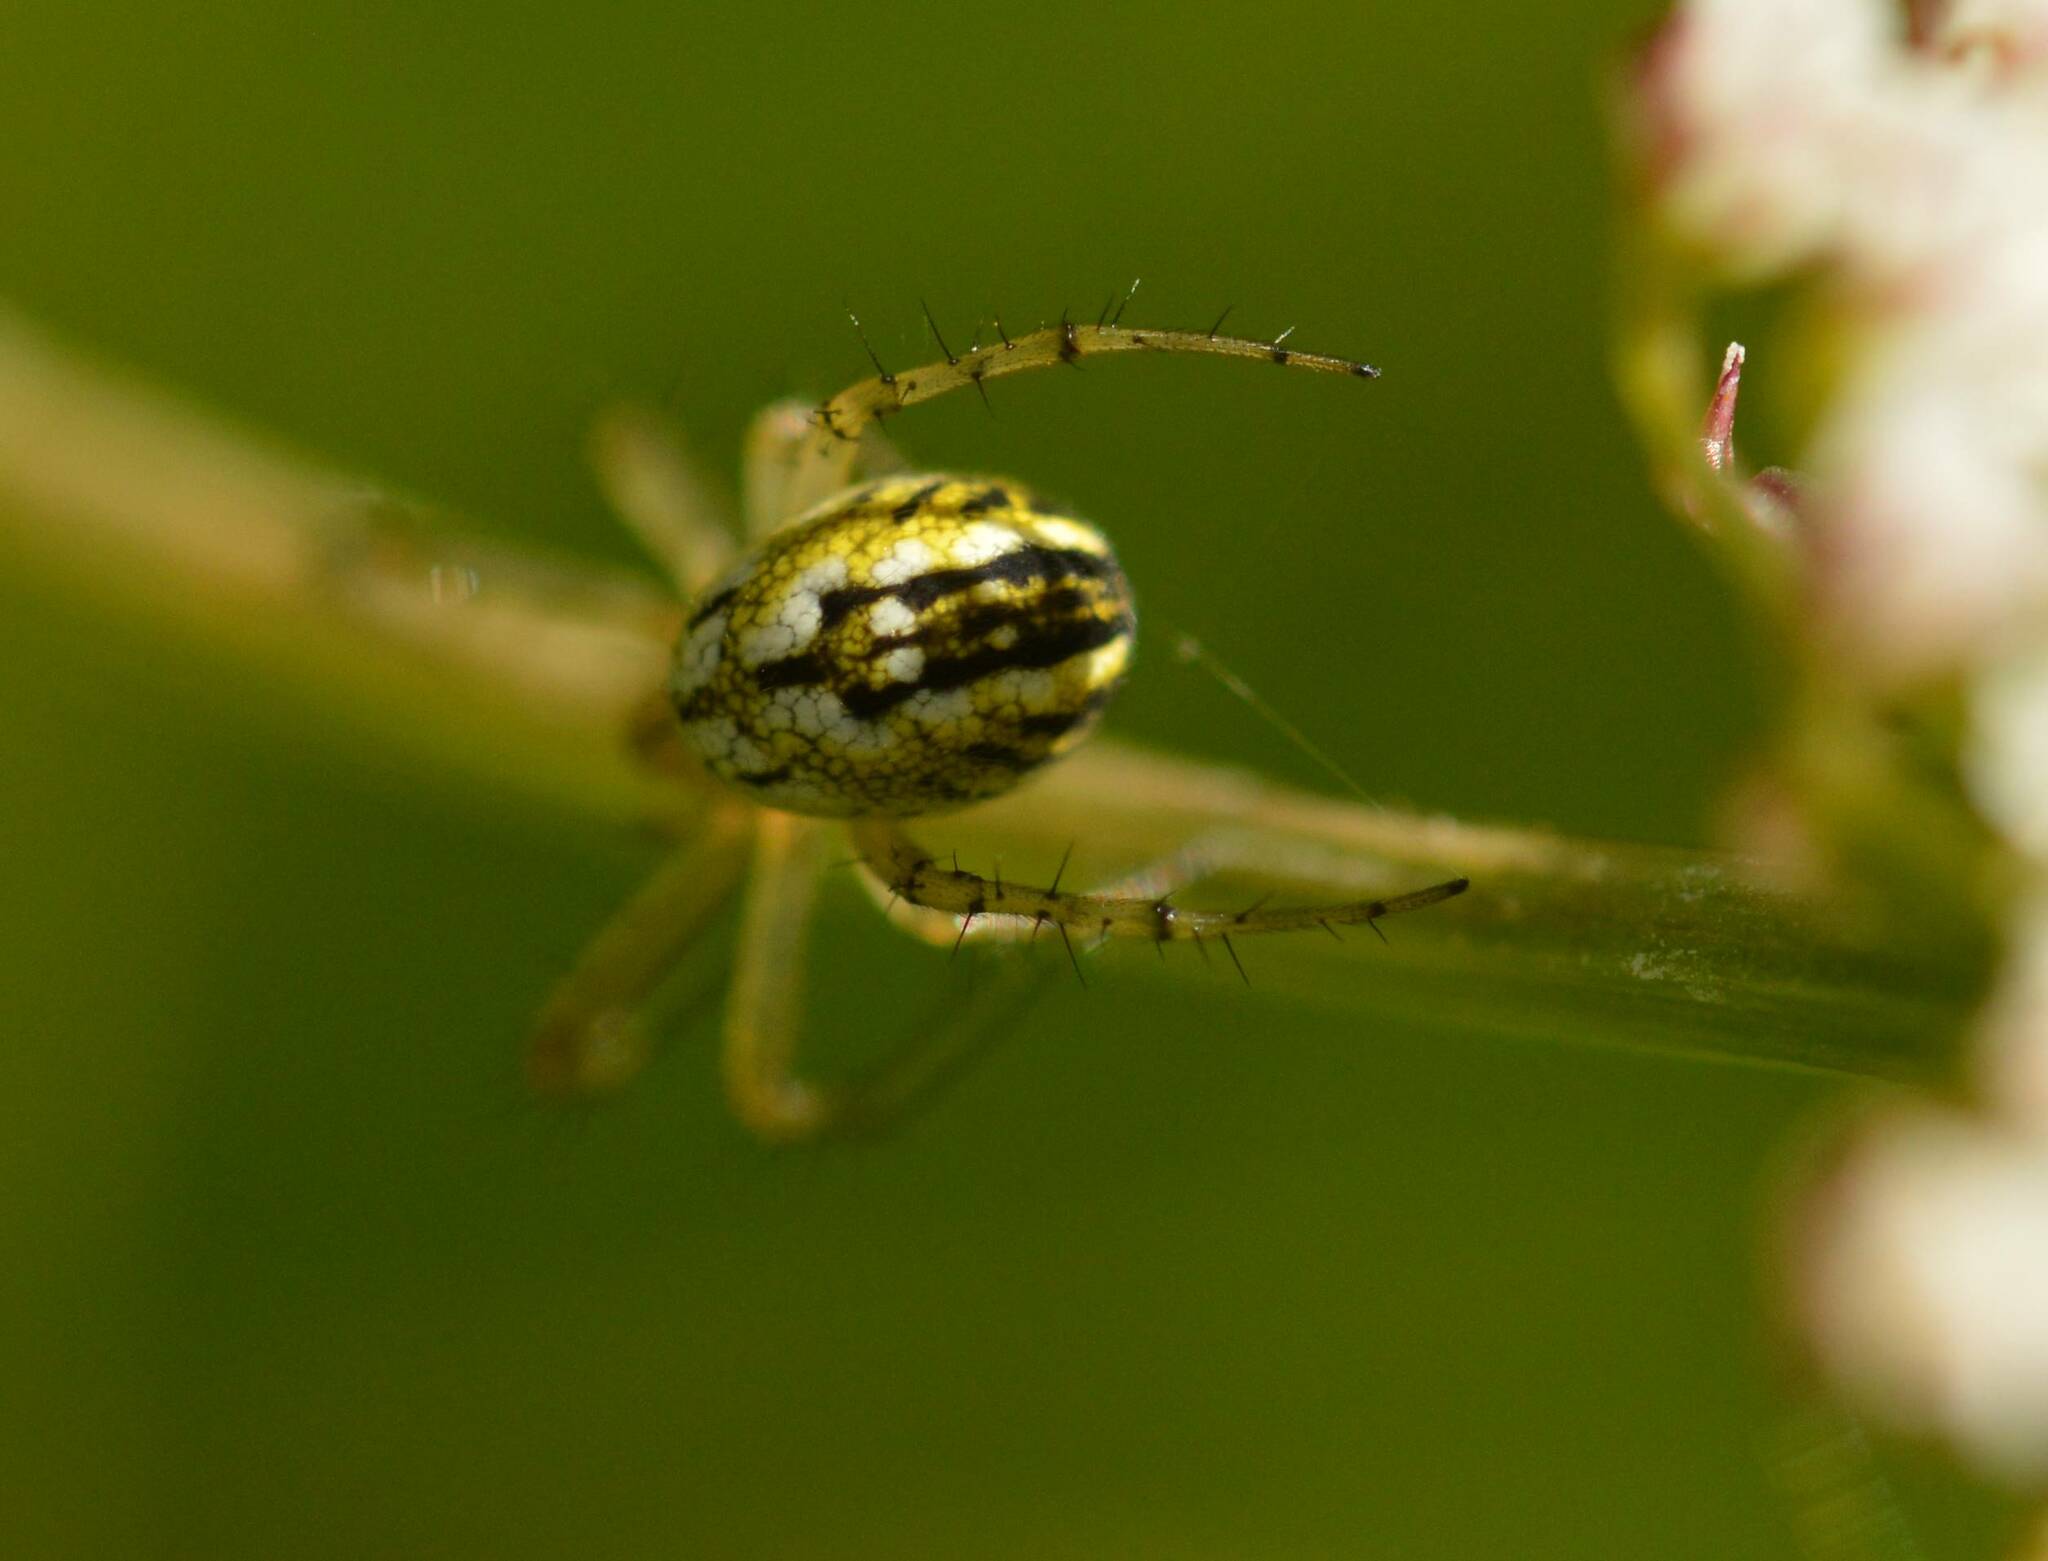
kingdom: Animalia
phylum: Arthropoda
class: Arachnida
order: Araneae
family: Araneidae
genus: Mangora
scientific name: Mangora acalypha
